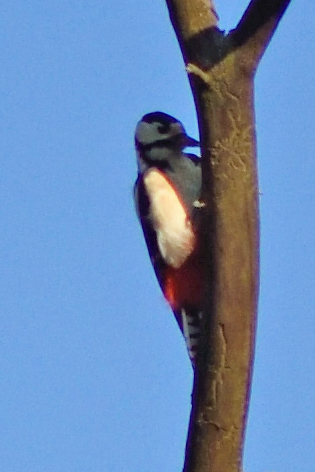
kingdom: Animalia
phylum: Chordata
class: Aves
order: Piciformes
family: Picidae
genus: Dendrocopos
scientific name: Dendrocopos major
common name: Great spotted woodpecker
